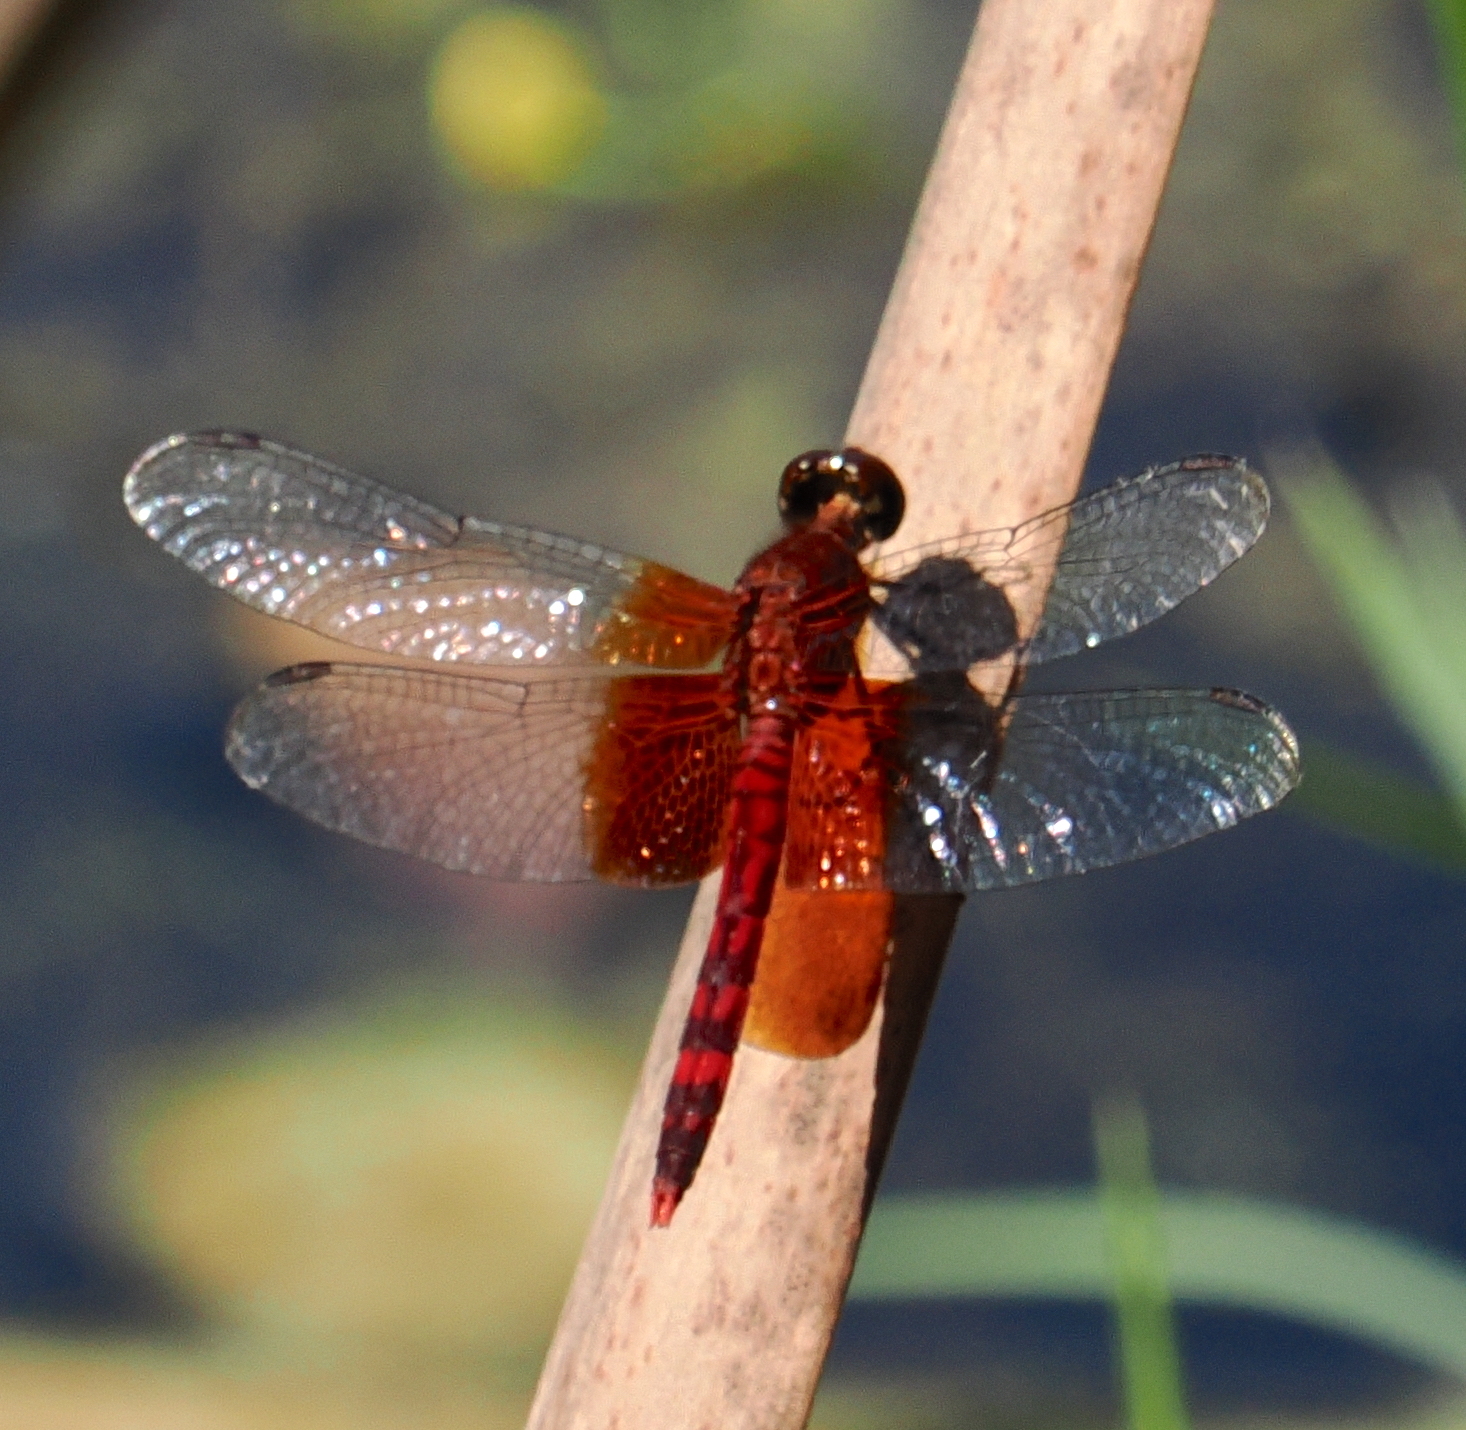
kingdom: Animalia
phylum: Arthropoda
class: Insecta
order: Odonata
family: Libellulidae
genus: Erythrodiplax
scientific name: Erythrodiplax fervida
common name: Red-mantled dragonlet
